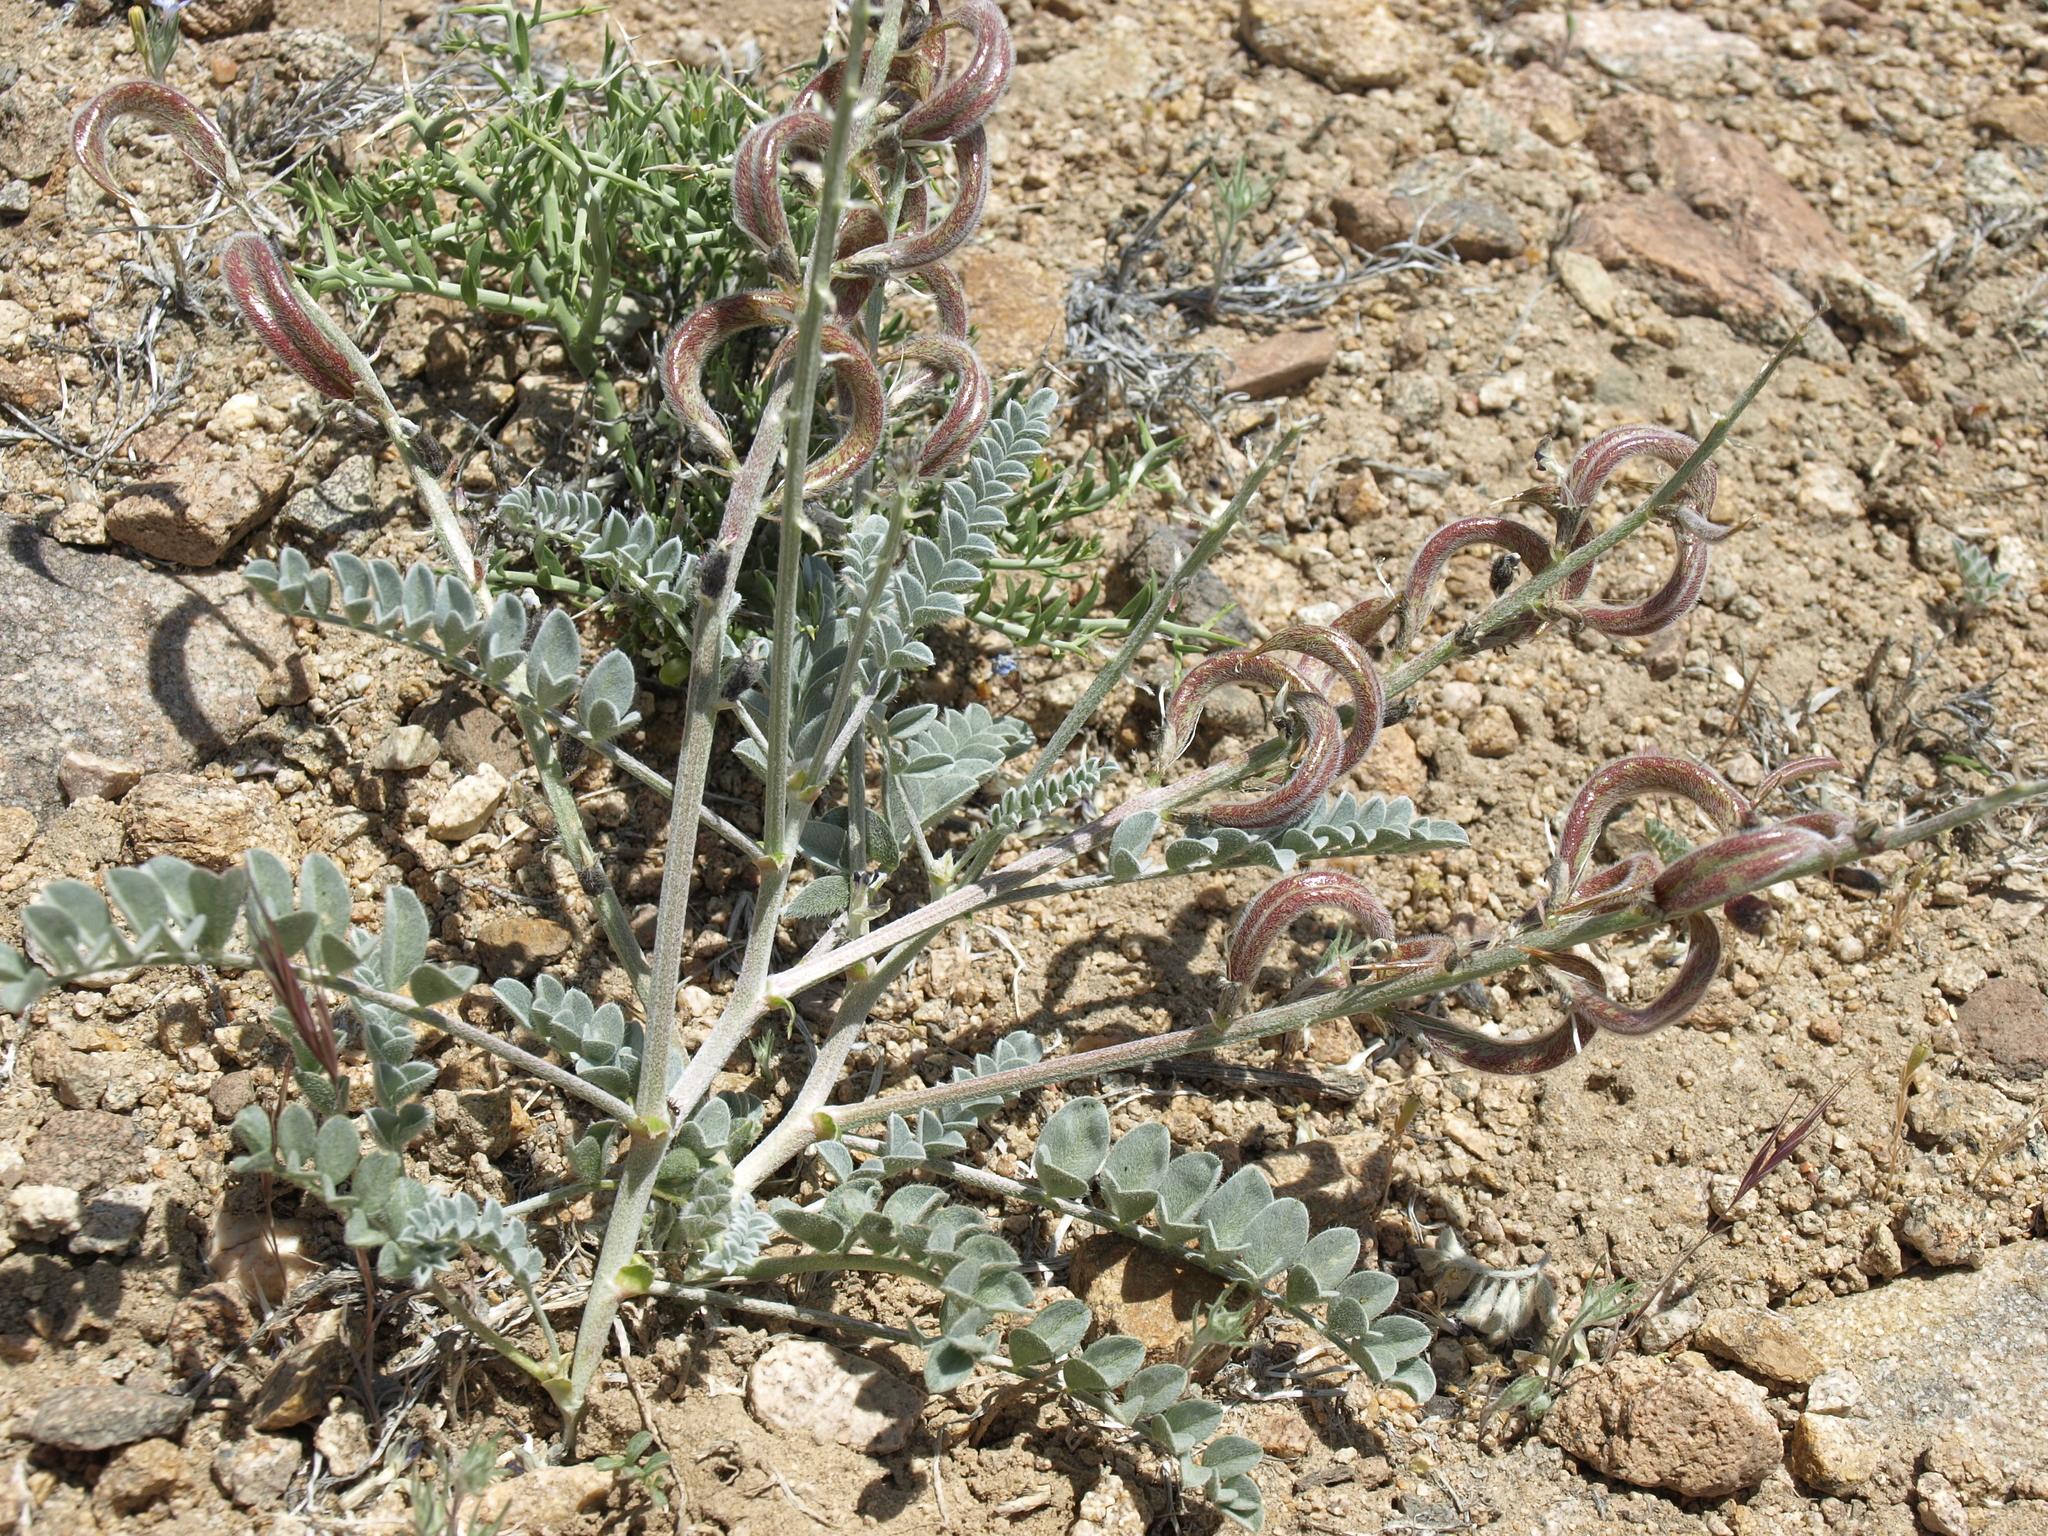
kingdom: Plantae
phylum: Tracheophyta
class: Magnoliopsida
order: Fabales
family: Fabaceae
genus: Astragalus
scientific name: Astragalus layneae
